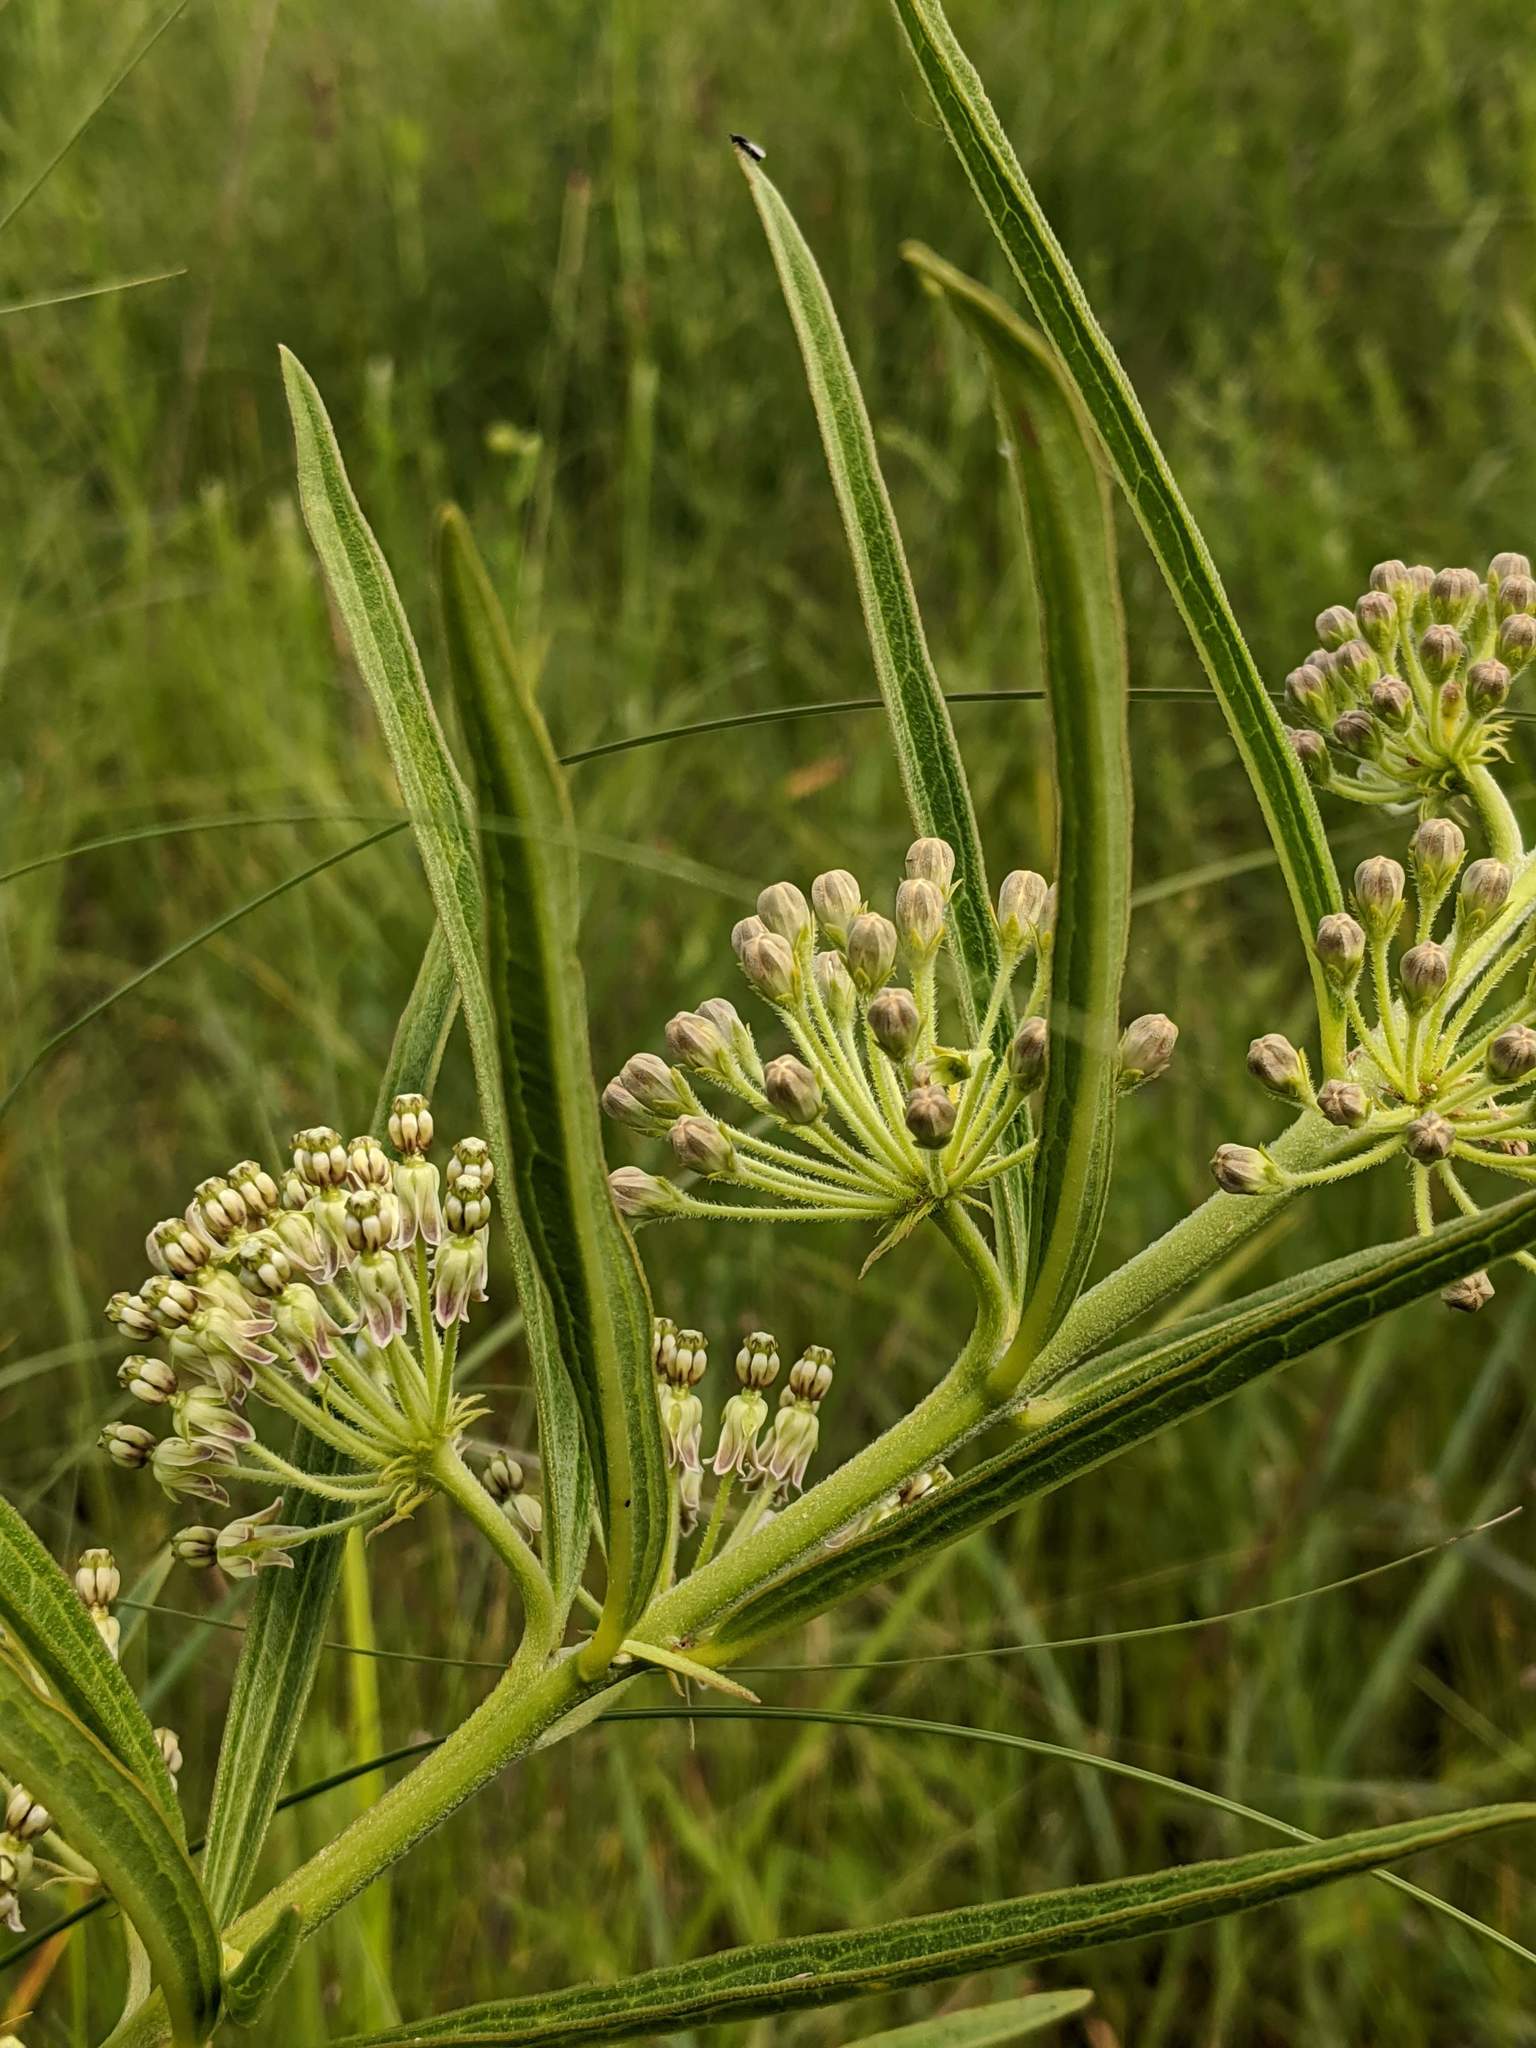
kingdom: Plantae
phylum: Tracheophyta
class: Magnoliopsida
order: Gentianales
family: Apocynaceae
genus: Asclepias
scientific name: Asclepias hirtella
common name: Prairie milkweed
